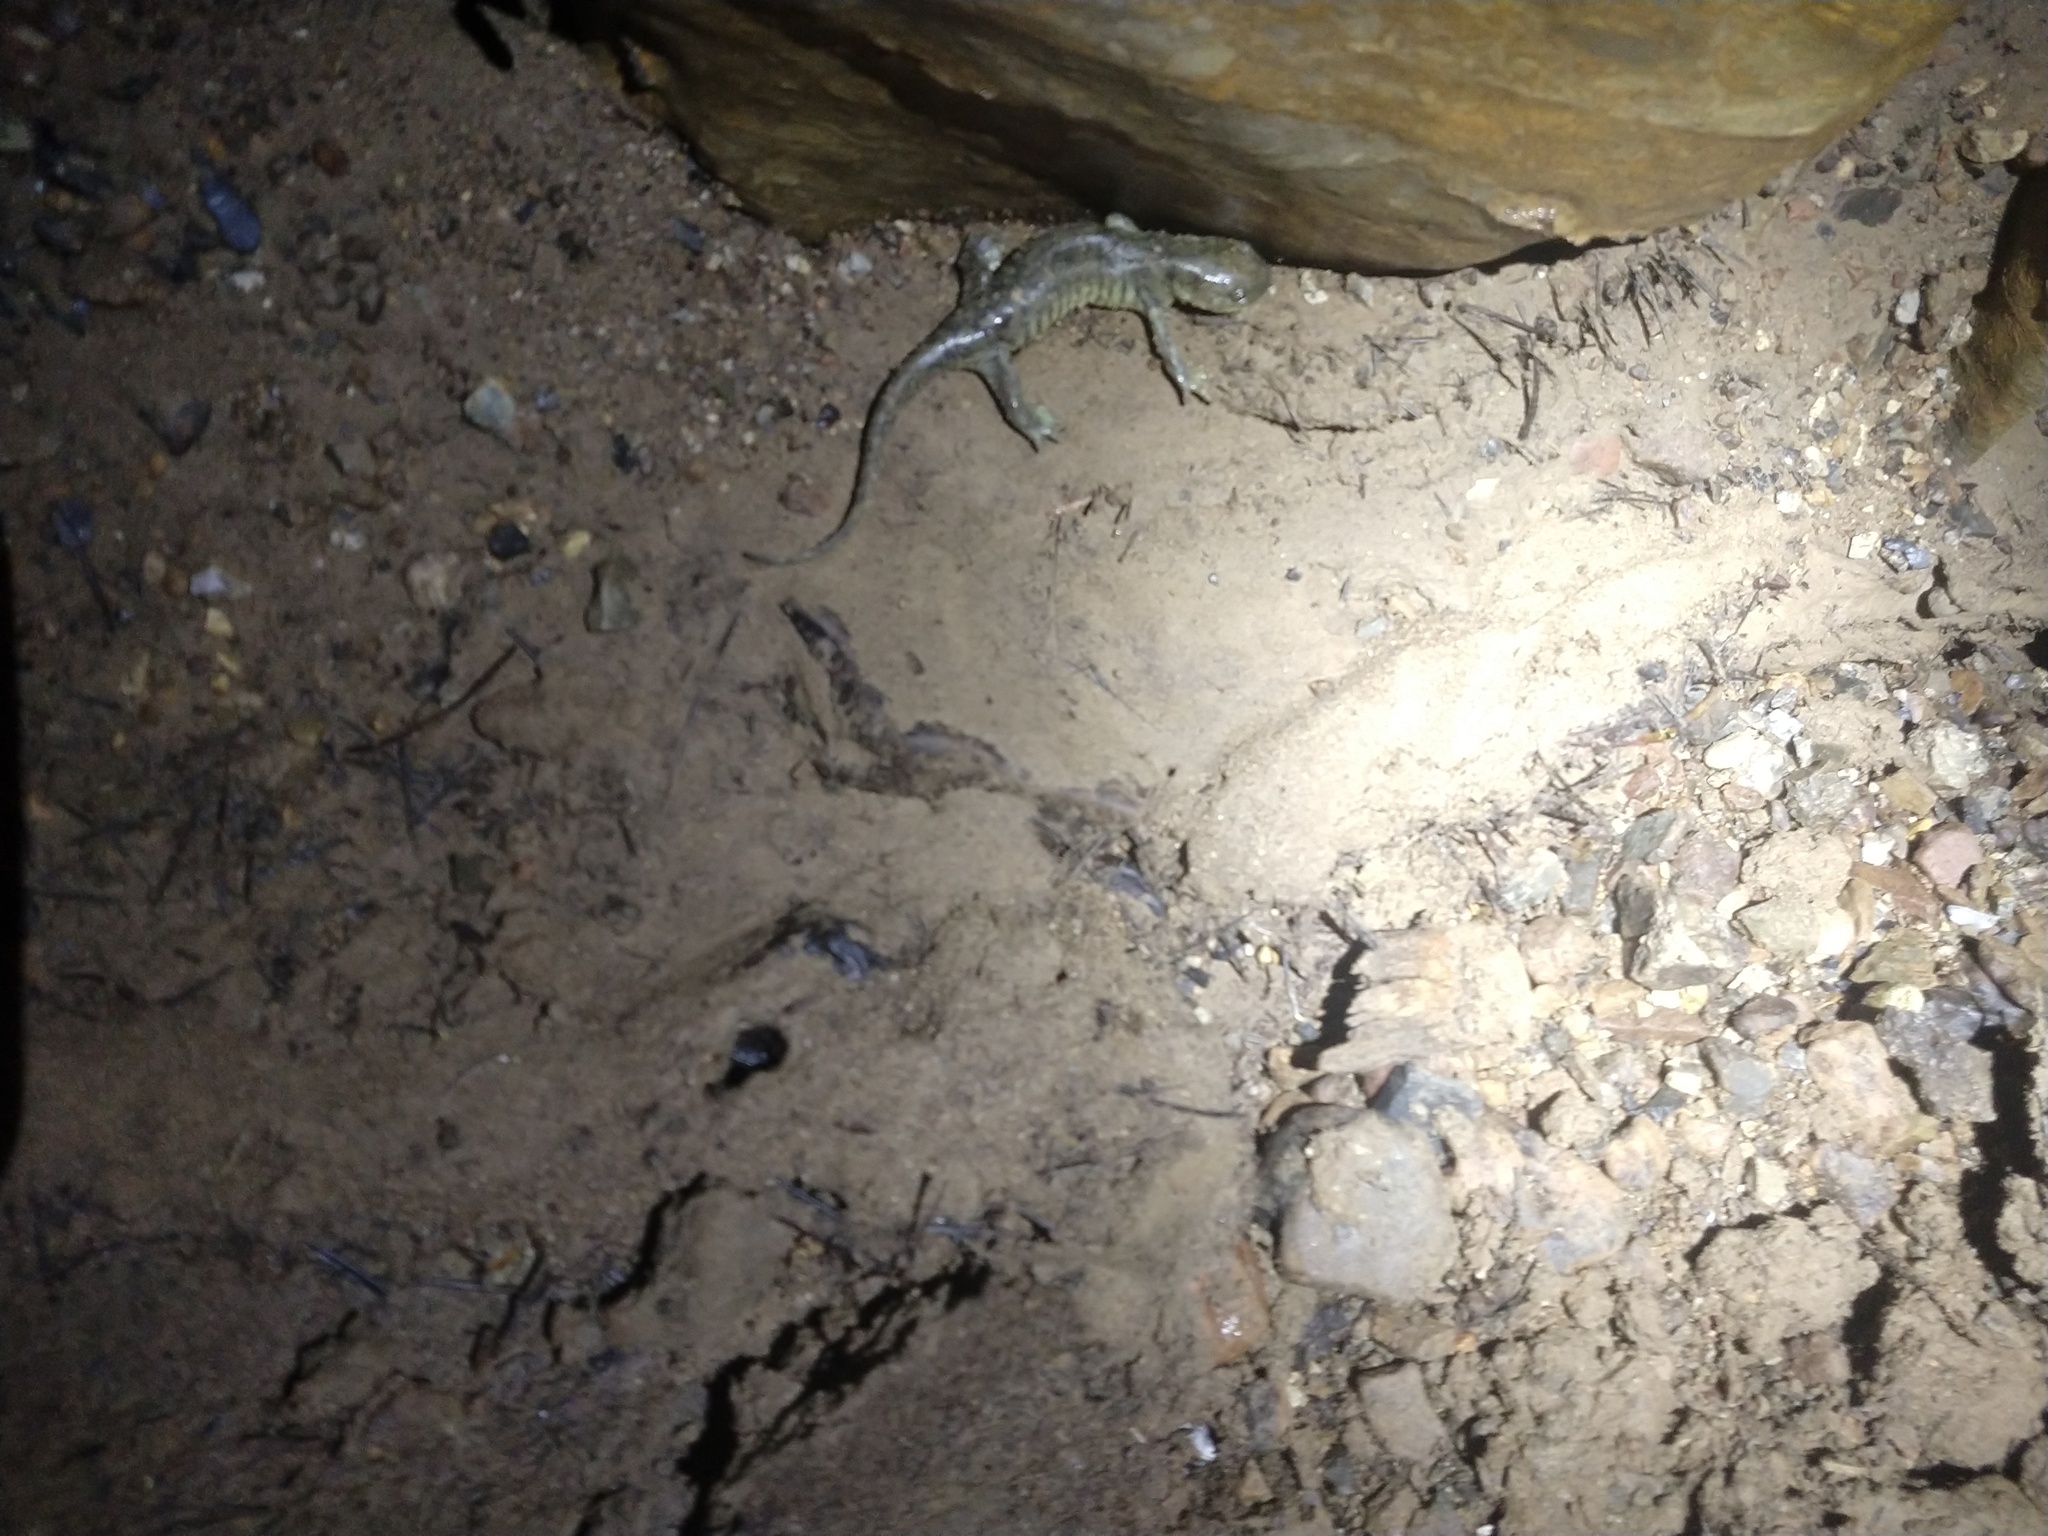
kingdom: Animalia
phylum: Chordata
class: Amphibia
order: Caudata
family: Ambystomatidae
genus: Ambystoma
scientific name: Ambystoma mavortium
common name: Western tiger salamander
